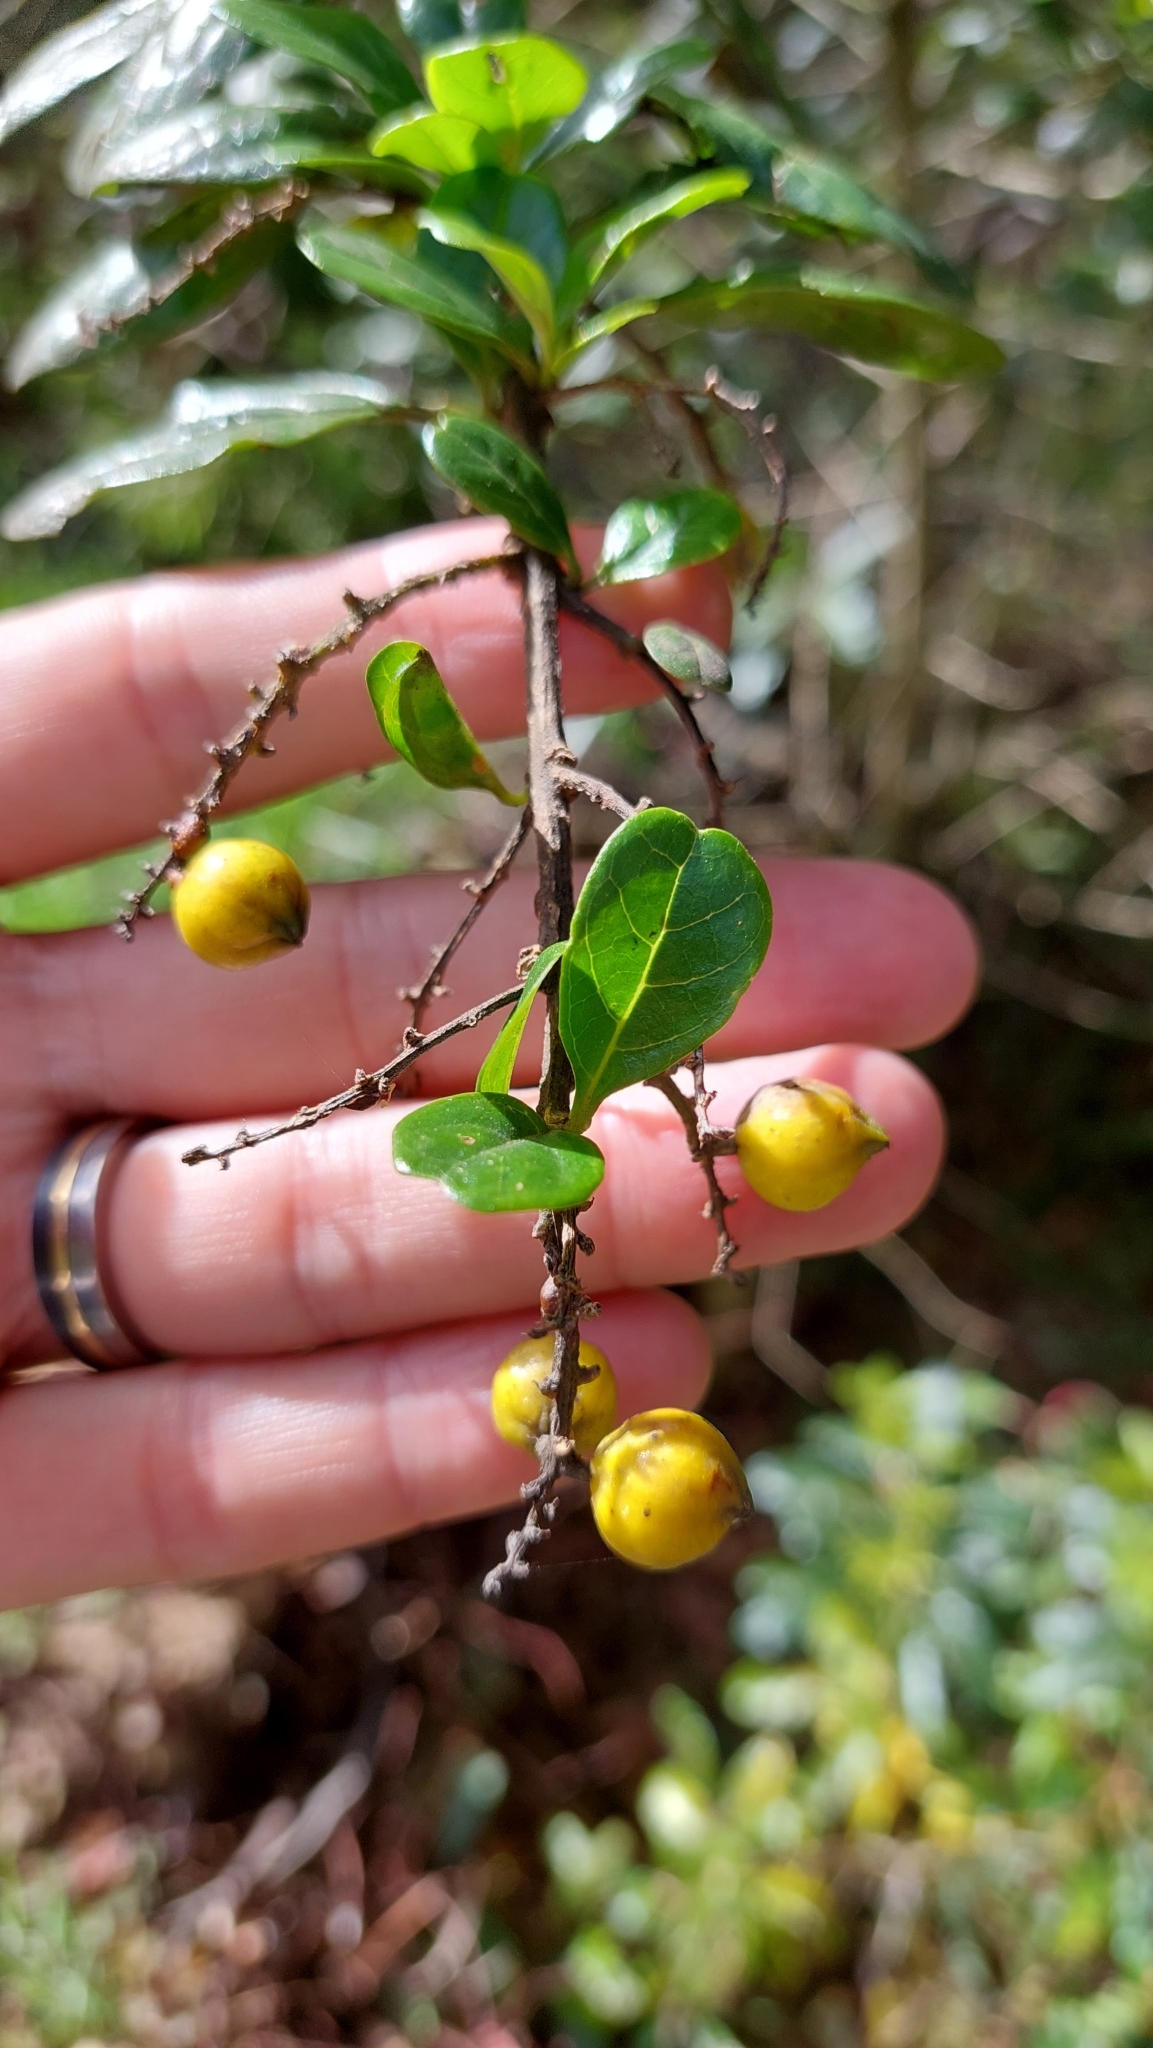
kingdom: Plantae
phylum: Tracheophyta
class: Magnoliopsida
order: Lamiales
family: Verbenaceae
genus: Duranta
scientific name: Duranta mutisii
